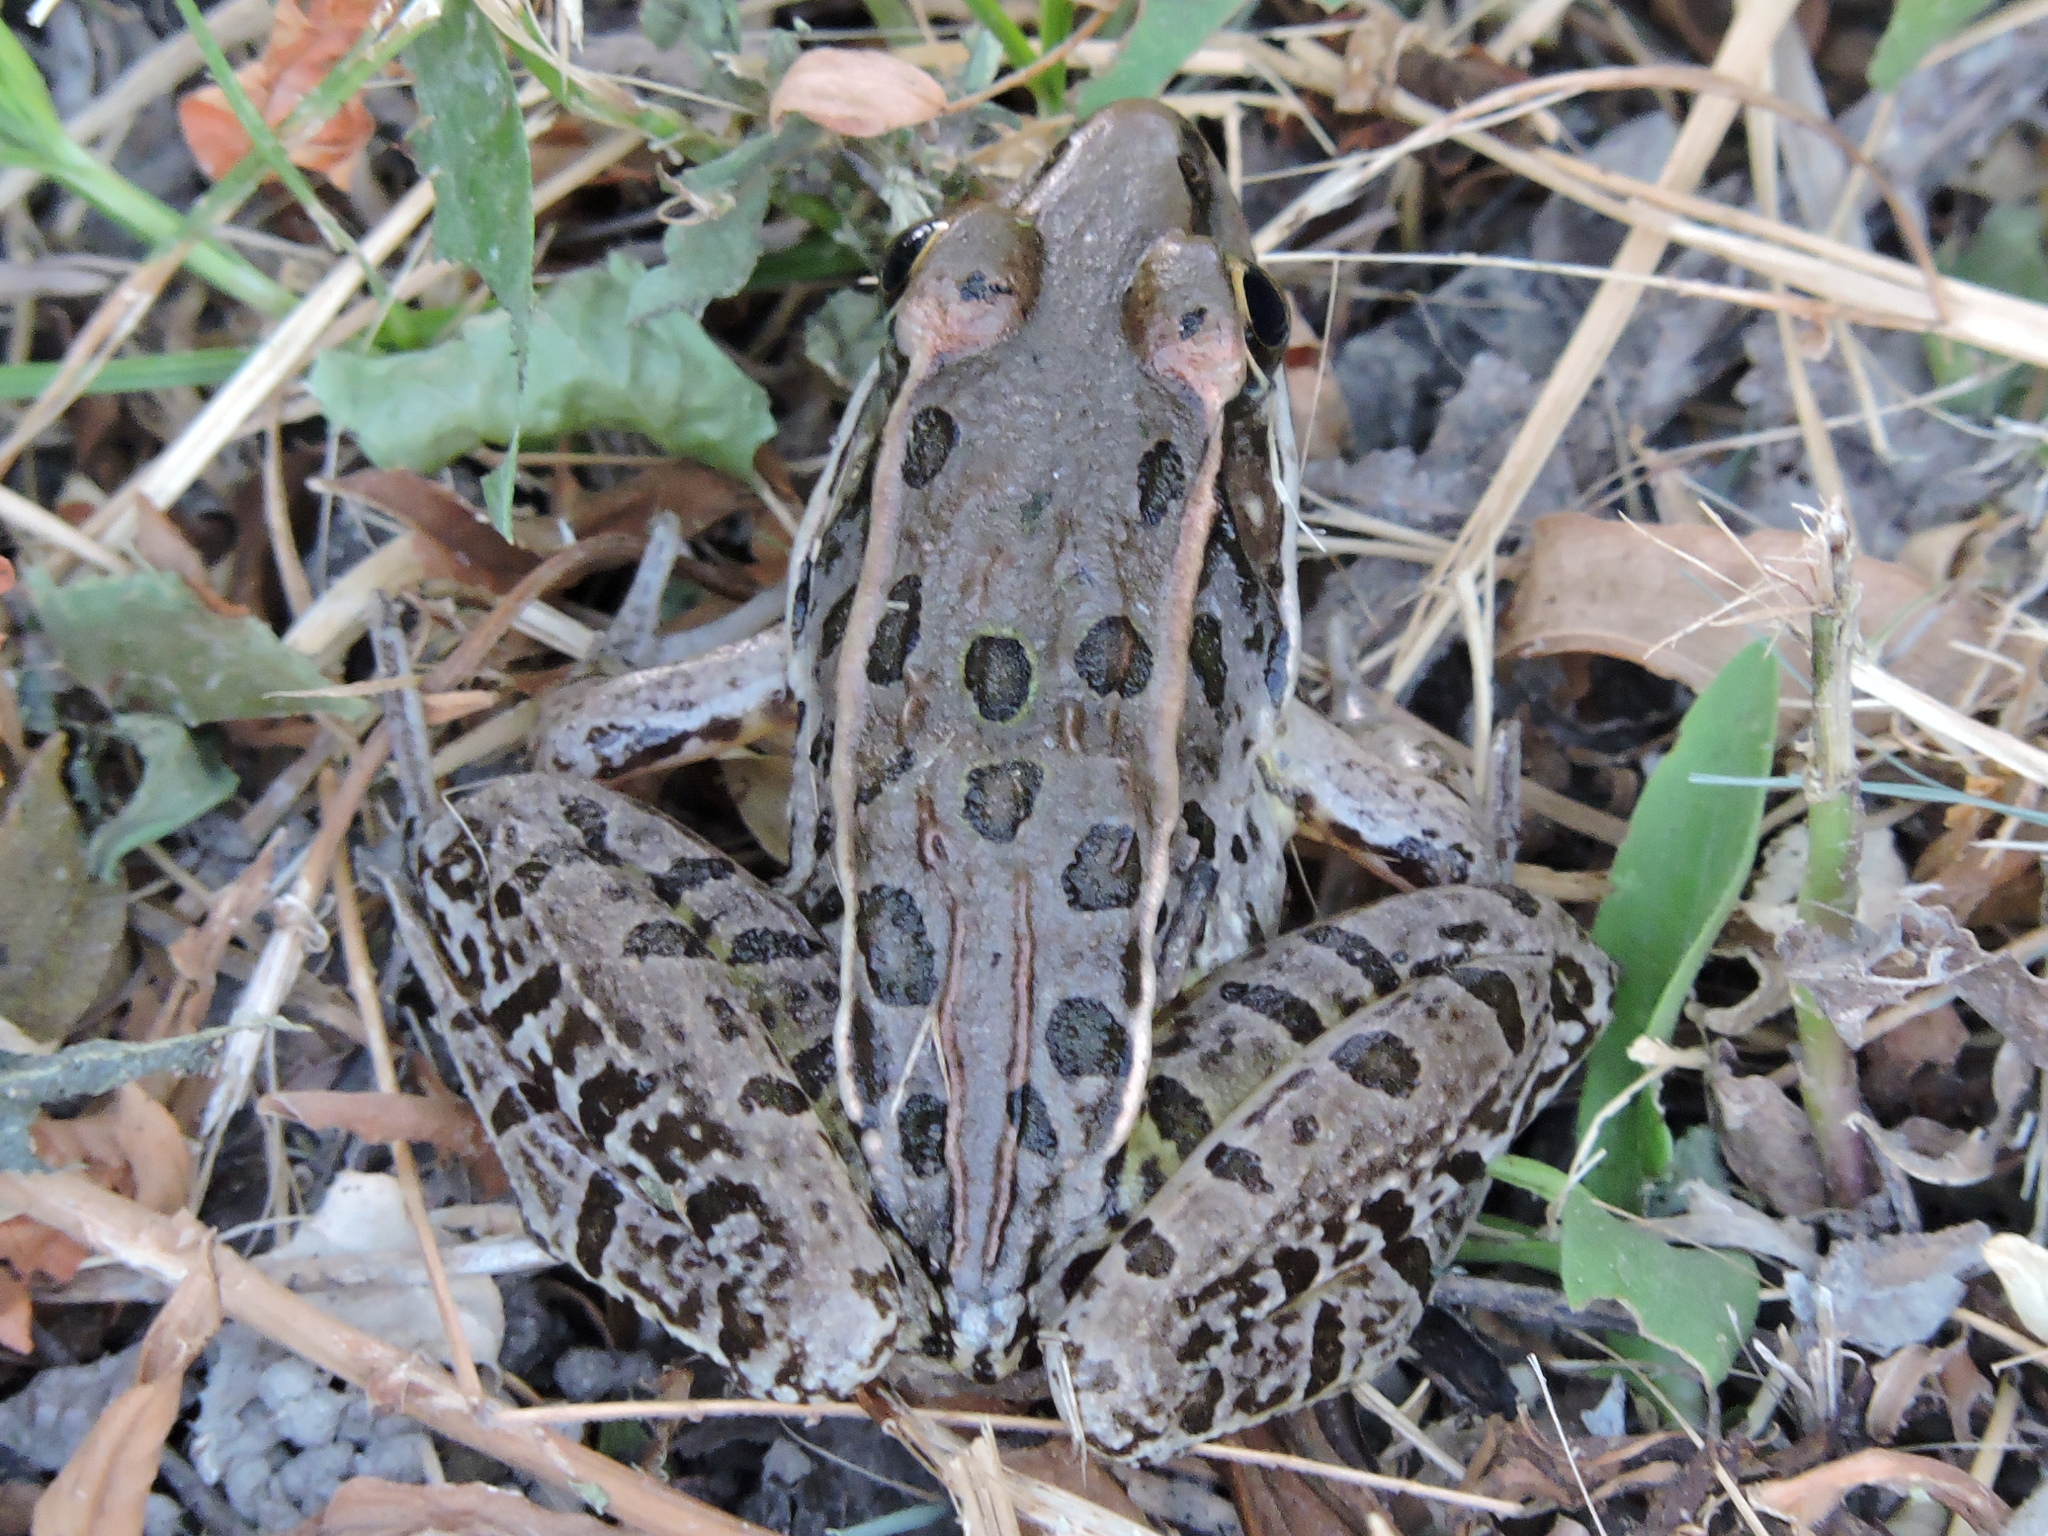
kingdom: Animalia
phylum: Chordata
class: Amphibia
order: Anura
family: Ranidae
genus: Lithobates
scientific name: Lithobates sphenocephalus
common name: Southern leopard frog
